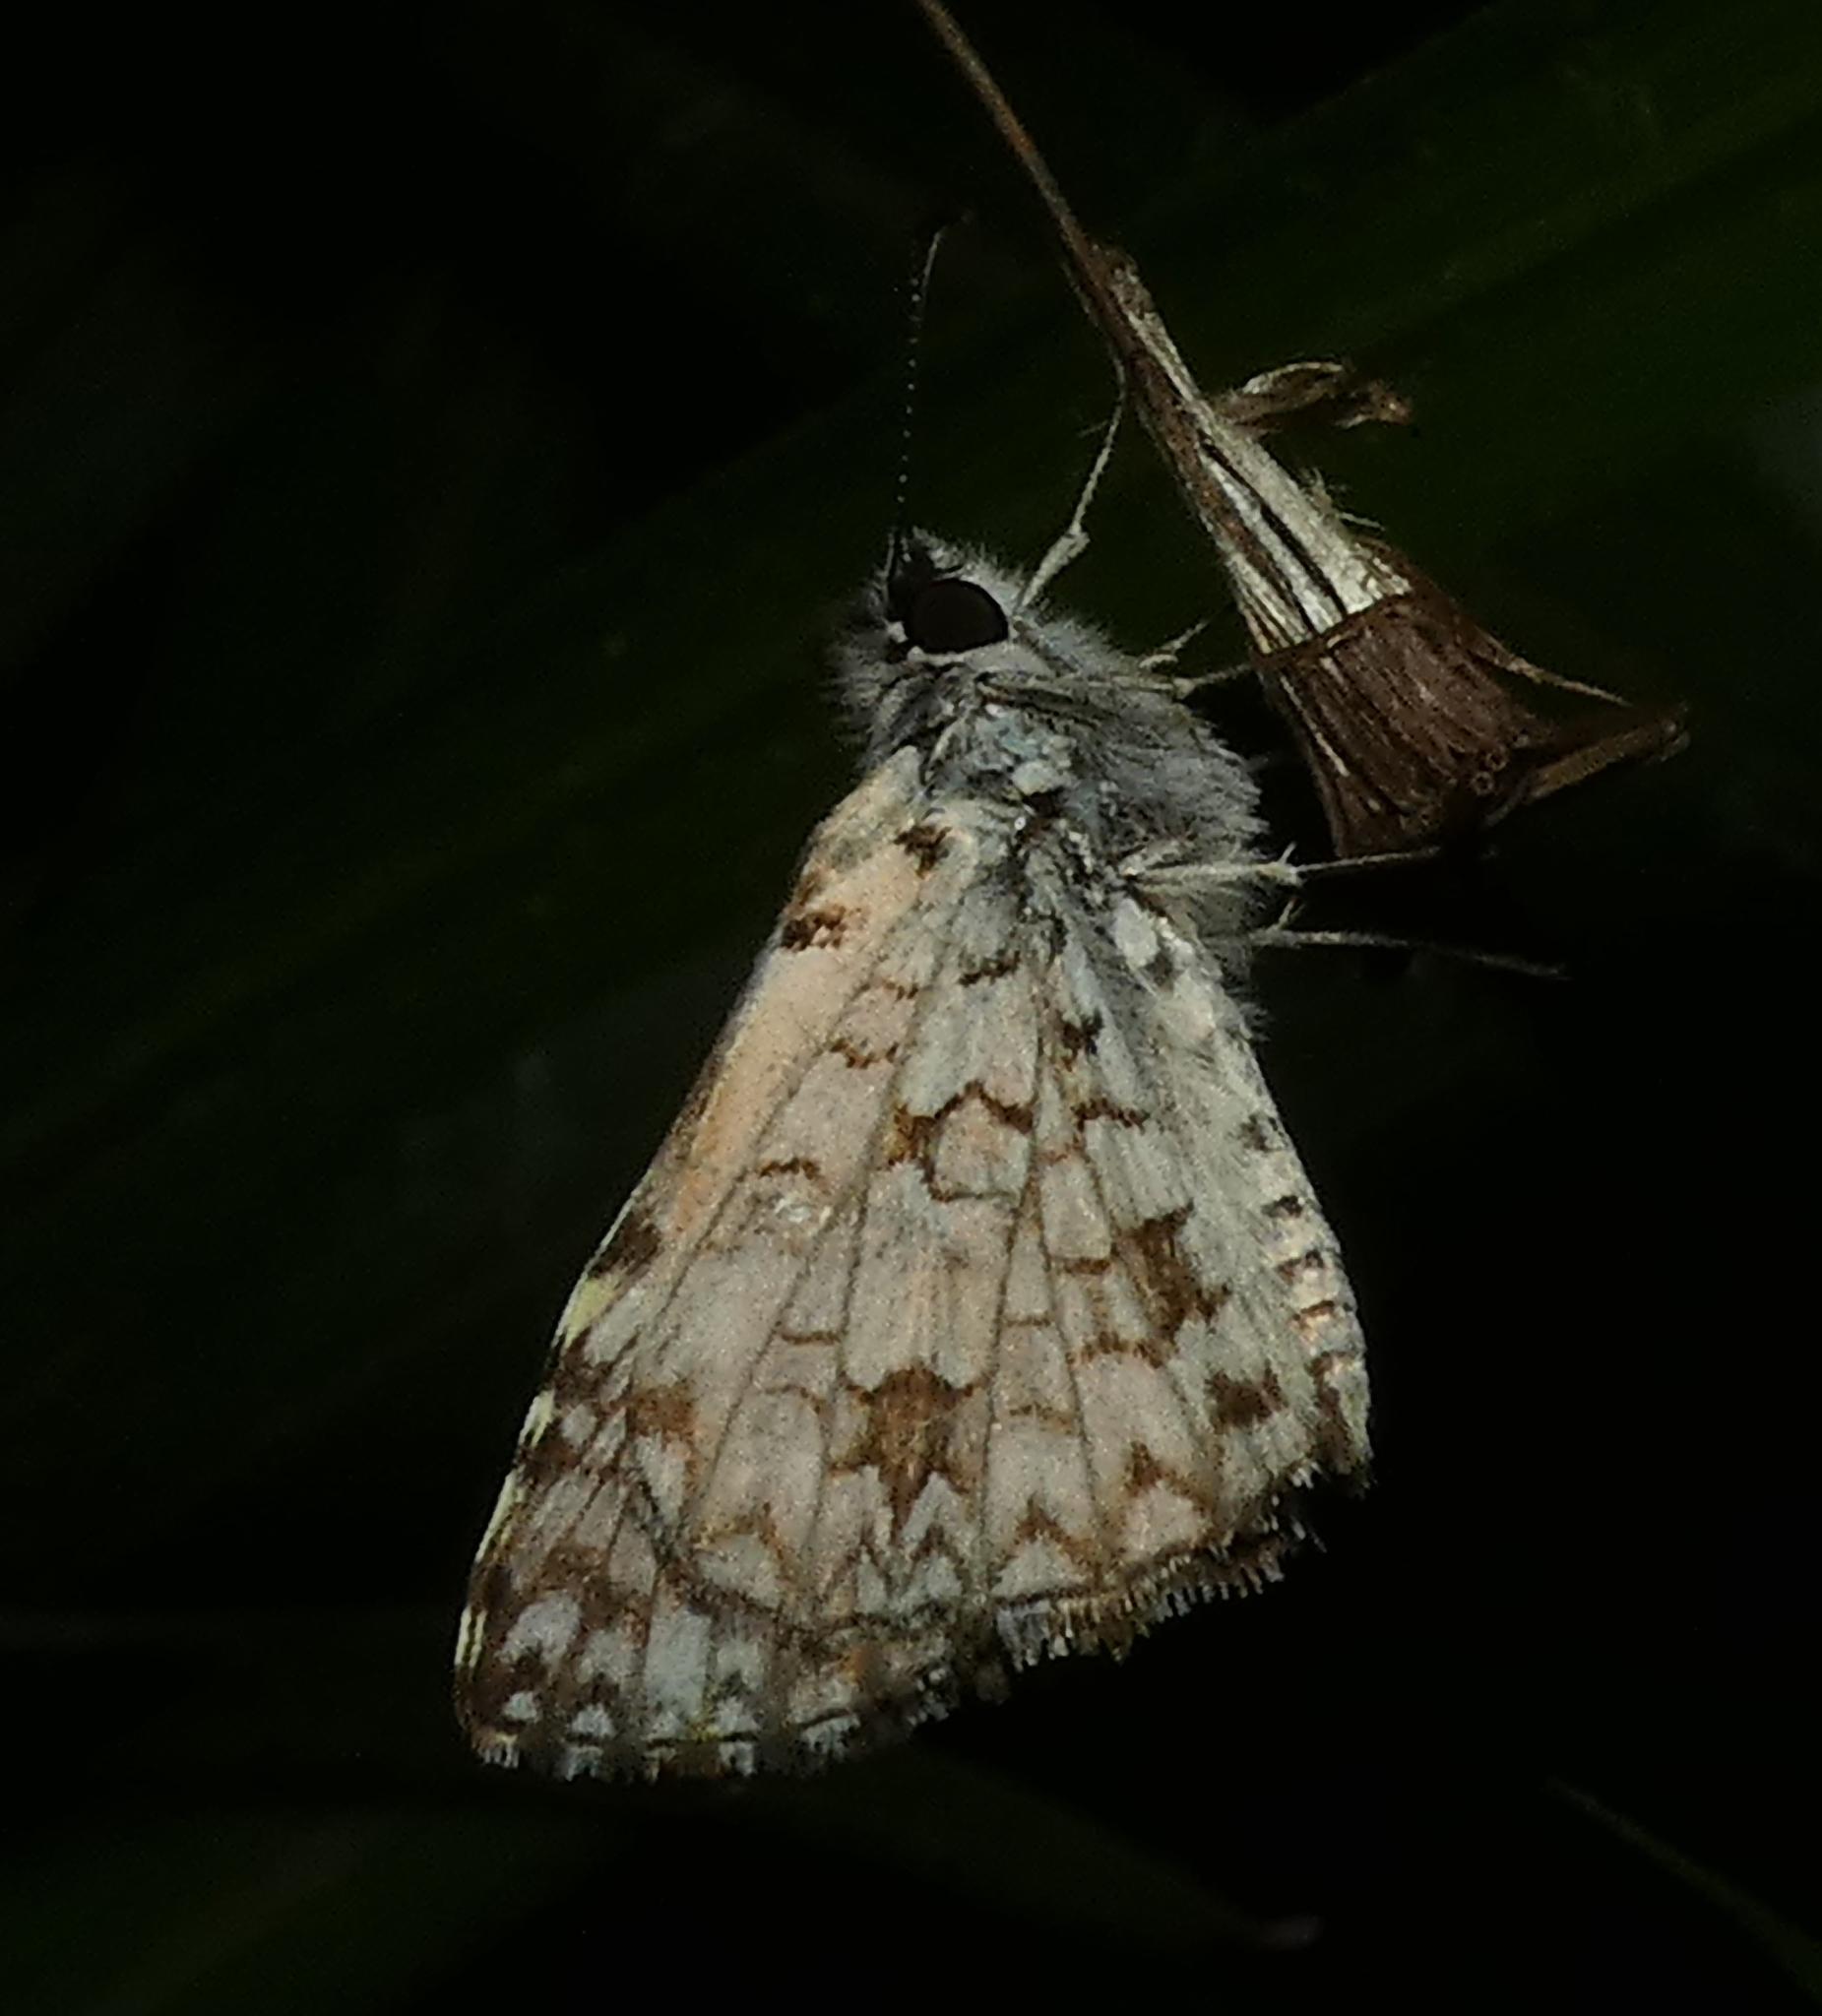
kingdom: Animalia
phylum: Arthropoda
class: Insecta
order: Lepidoptera
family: Hesperiidae
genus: Pyrgus
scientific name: Pyrgus oileus
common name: Tropical checkered-skipper
